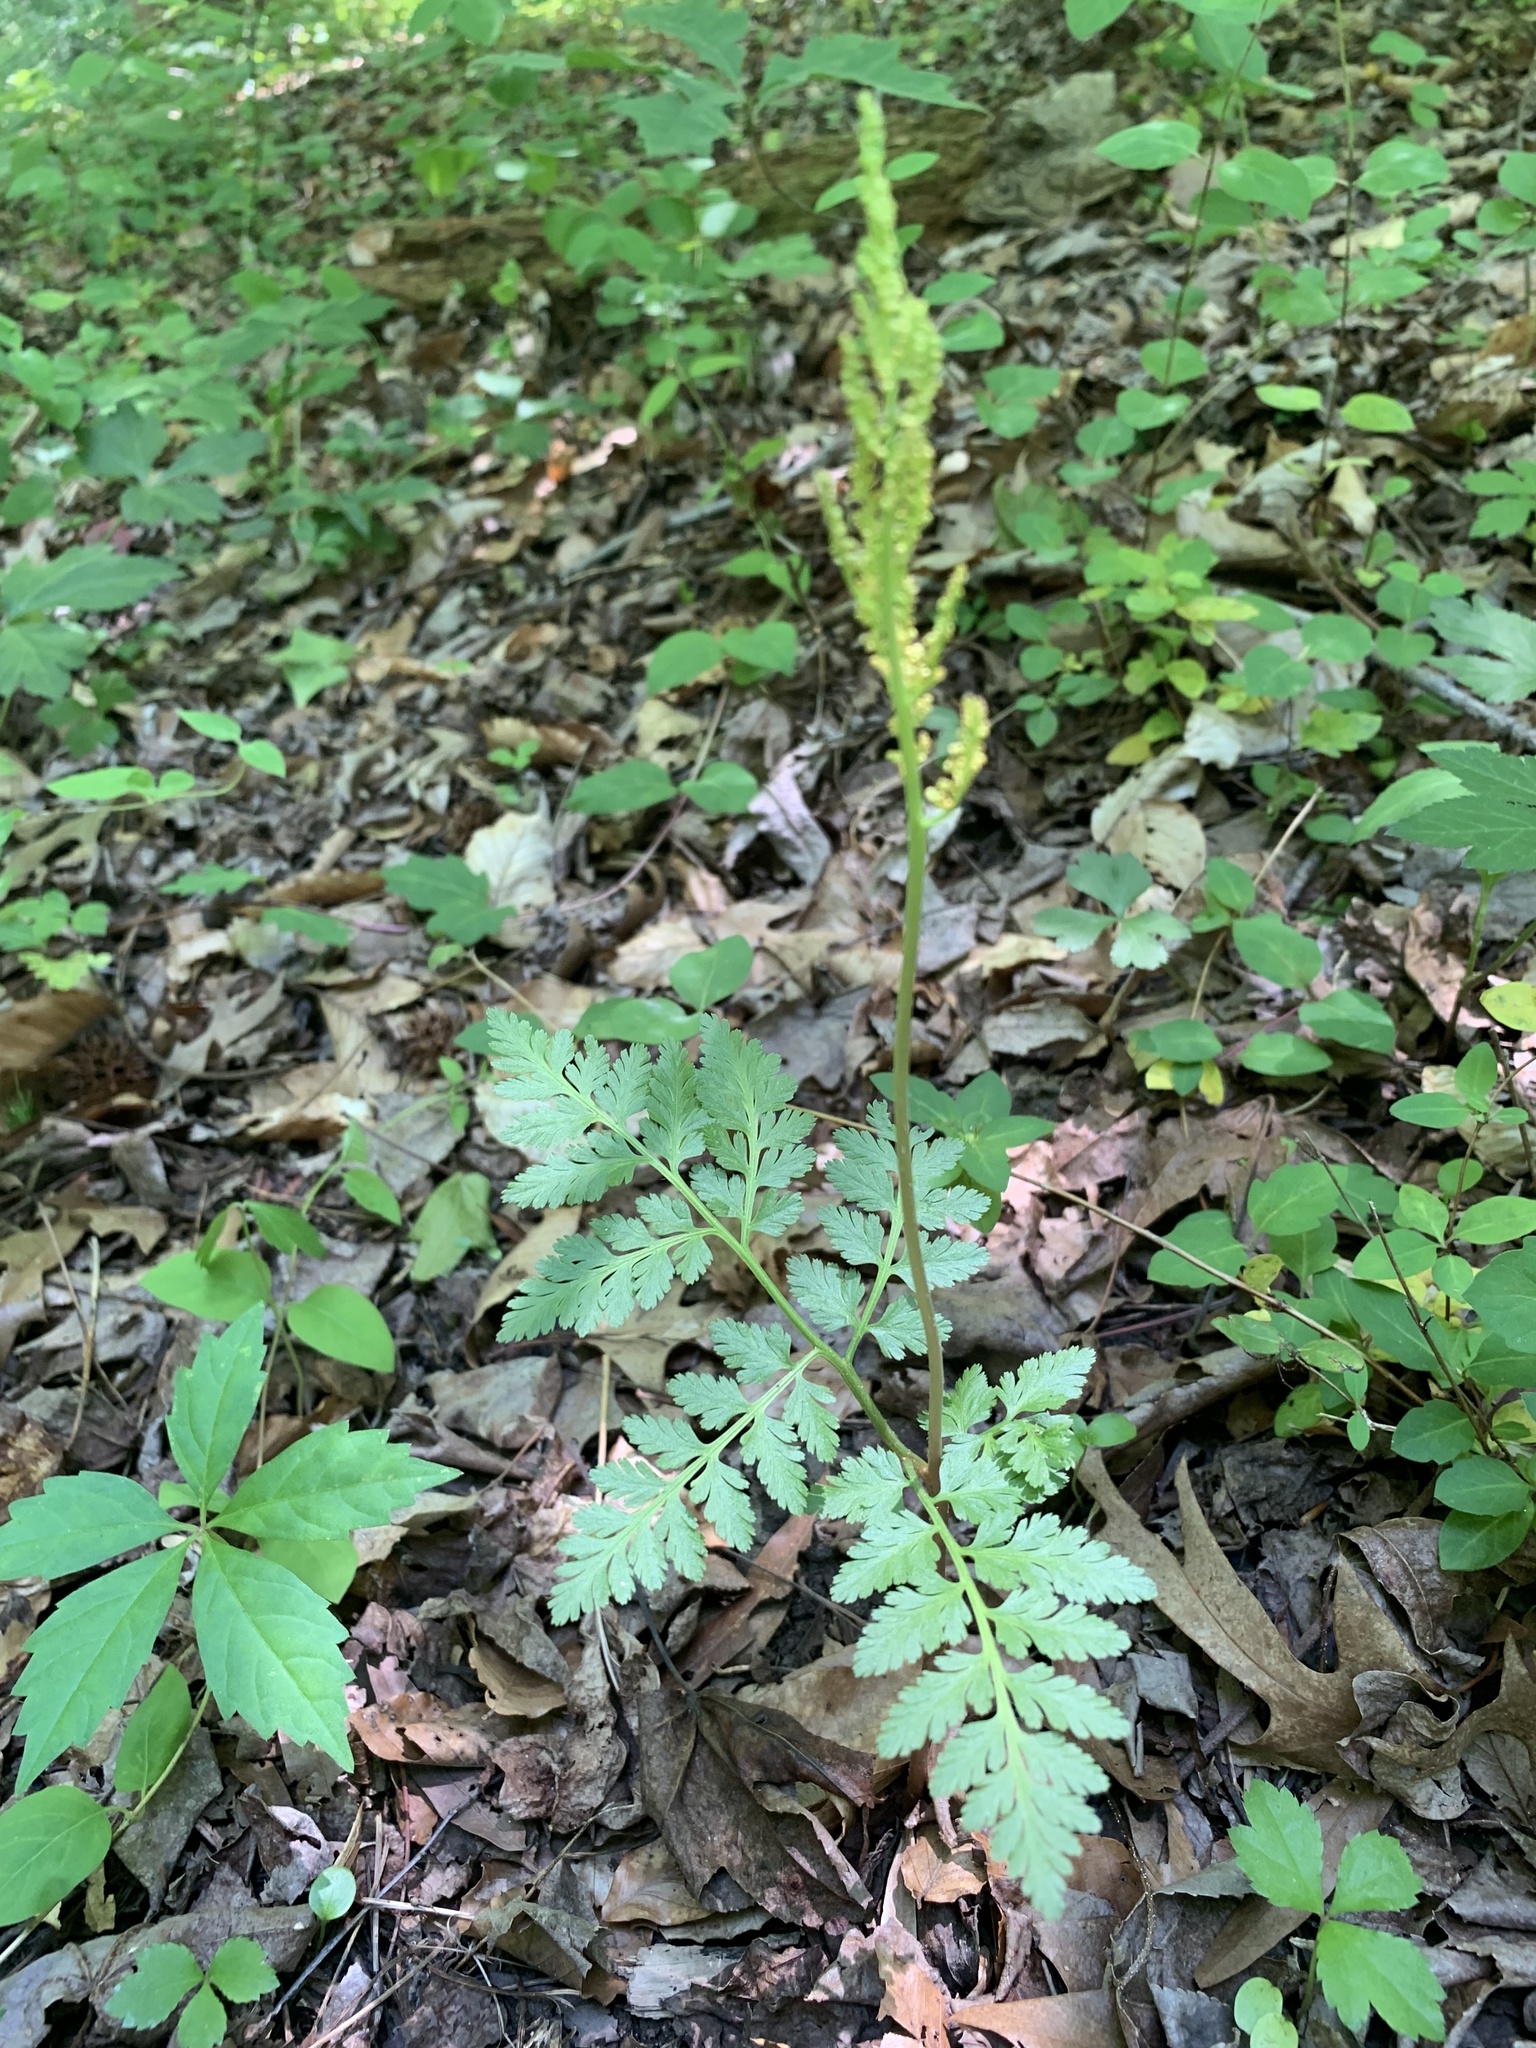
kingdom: Plantae
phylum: Tracheophyta
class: Polypodiopsida
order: Ophioglossales
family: Ophioglossaceae
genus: Botrypus
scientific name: Botrypus virginianus
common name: Common grapefern
